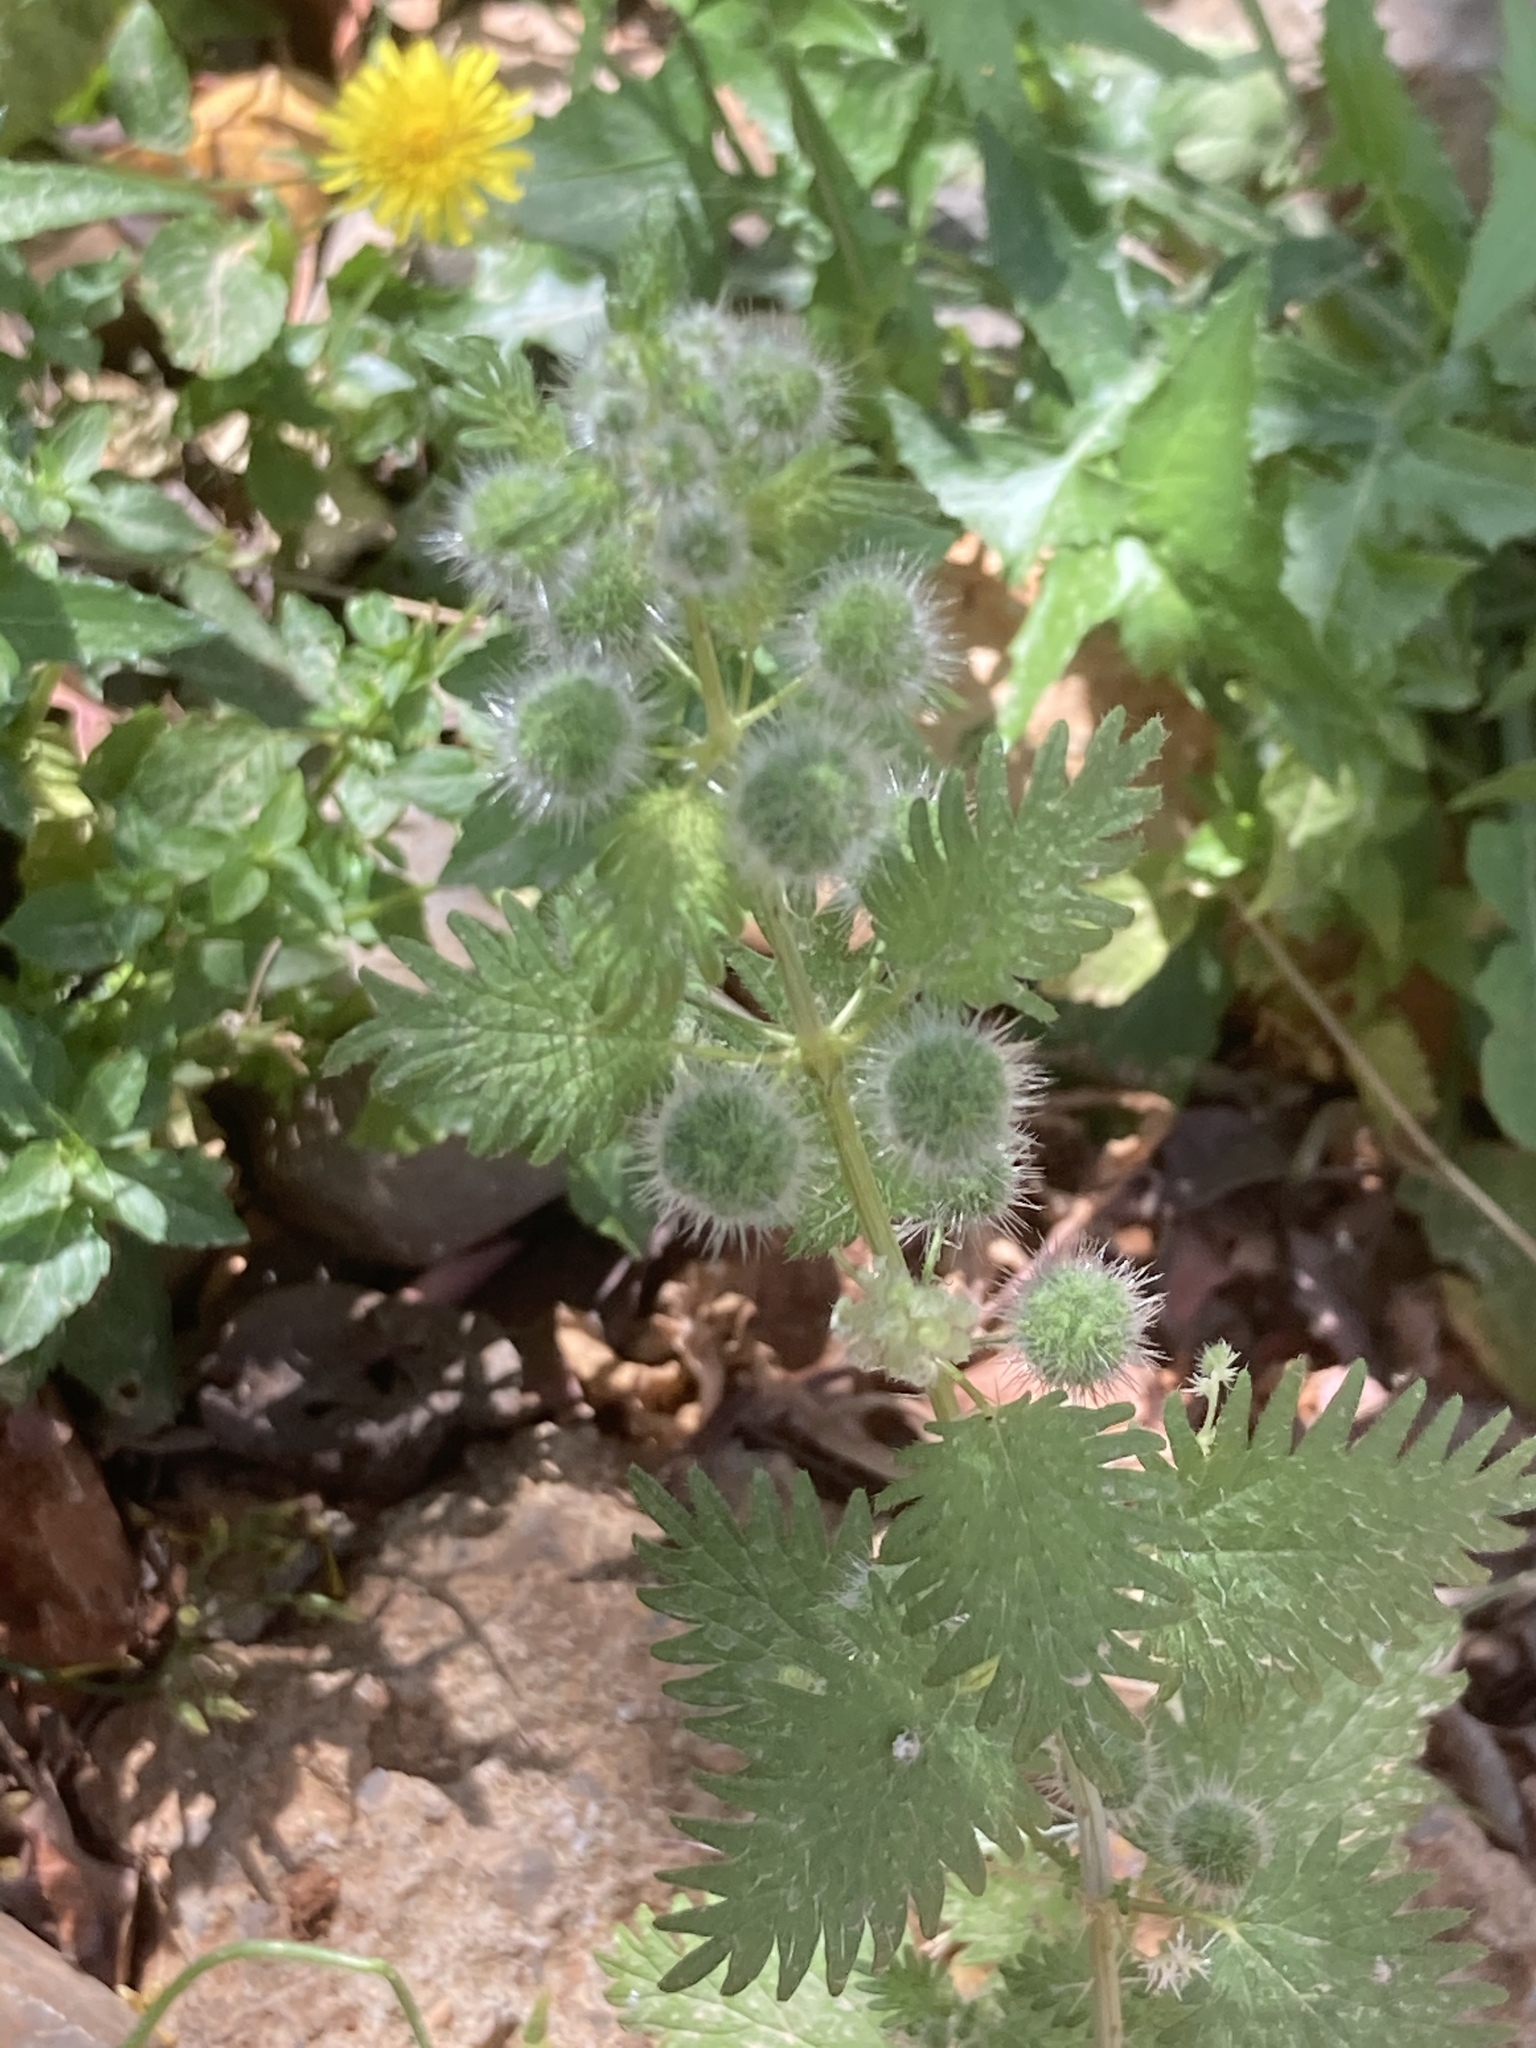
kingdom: Plantae
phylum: Tracheophyta
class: Magnoliopsida
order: Rosales
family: Urticaceae
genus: Urtica
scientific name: Urtica pilulifera
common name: Roman nettle
